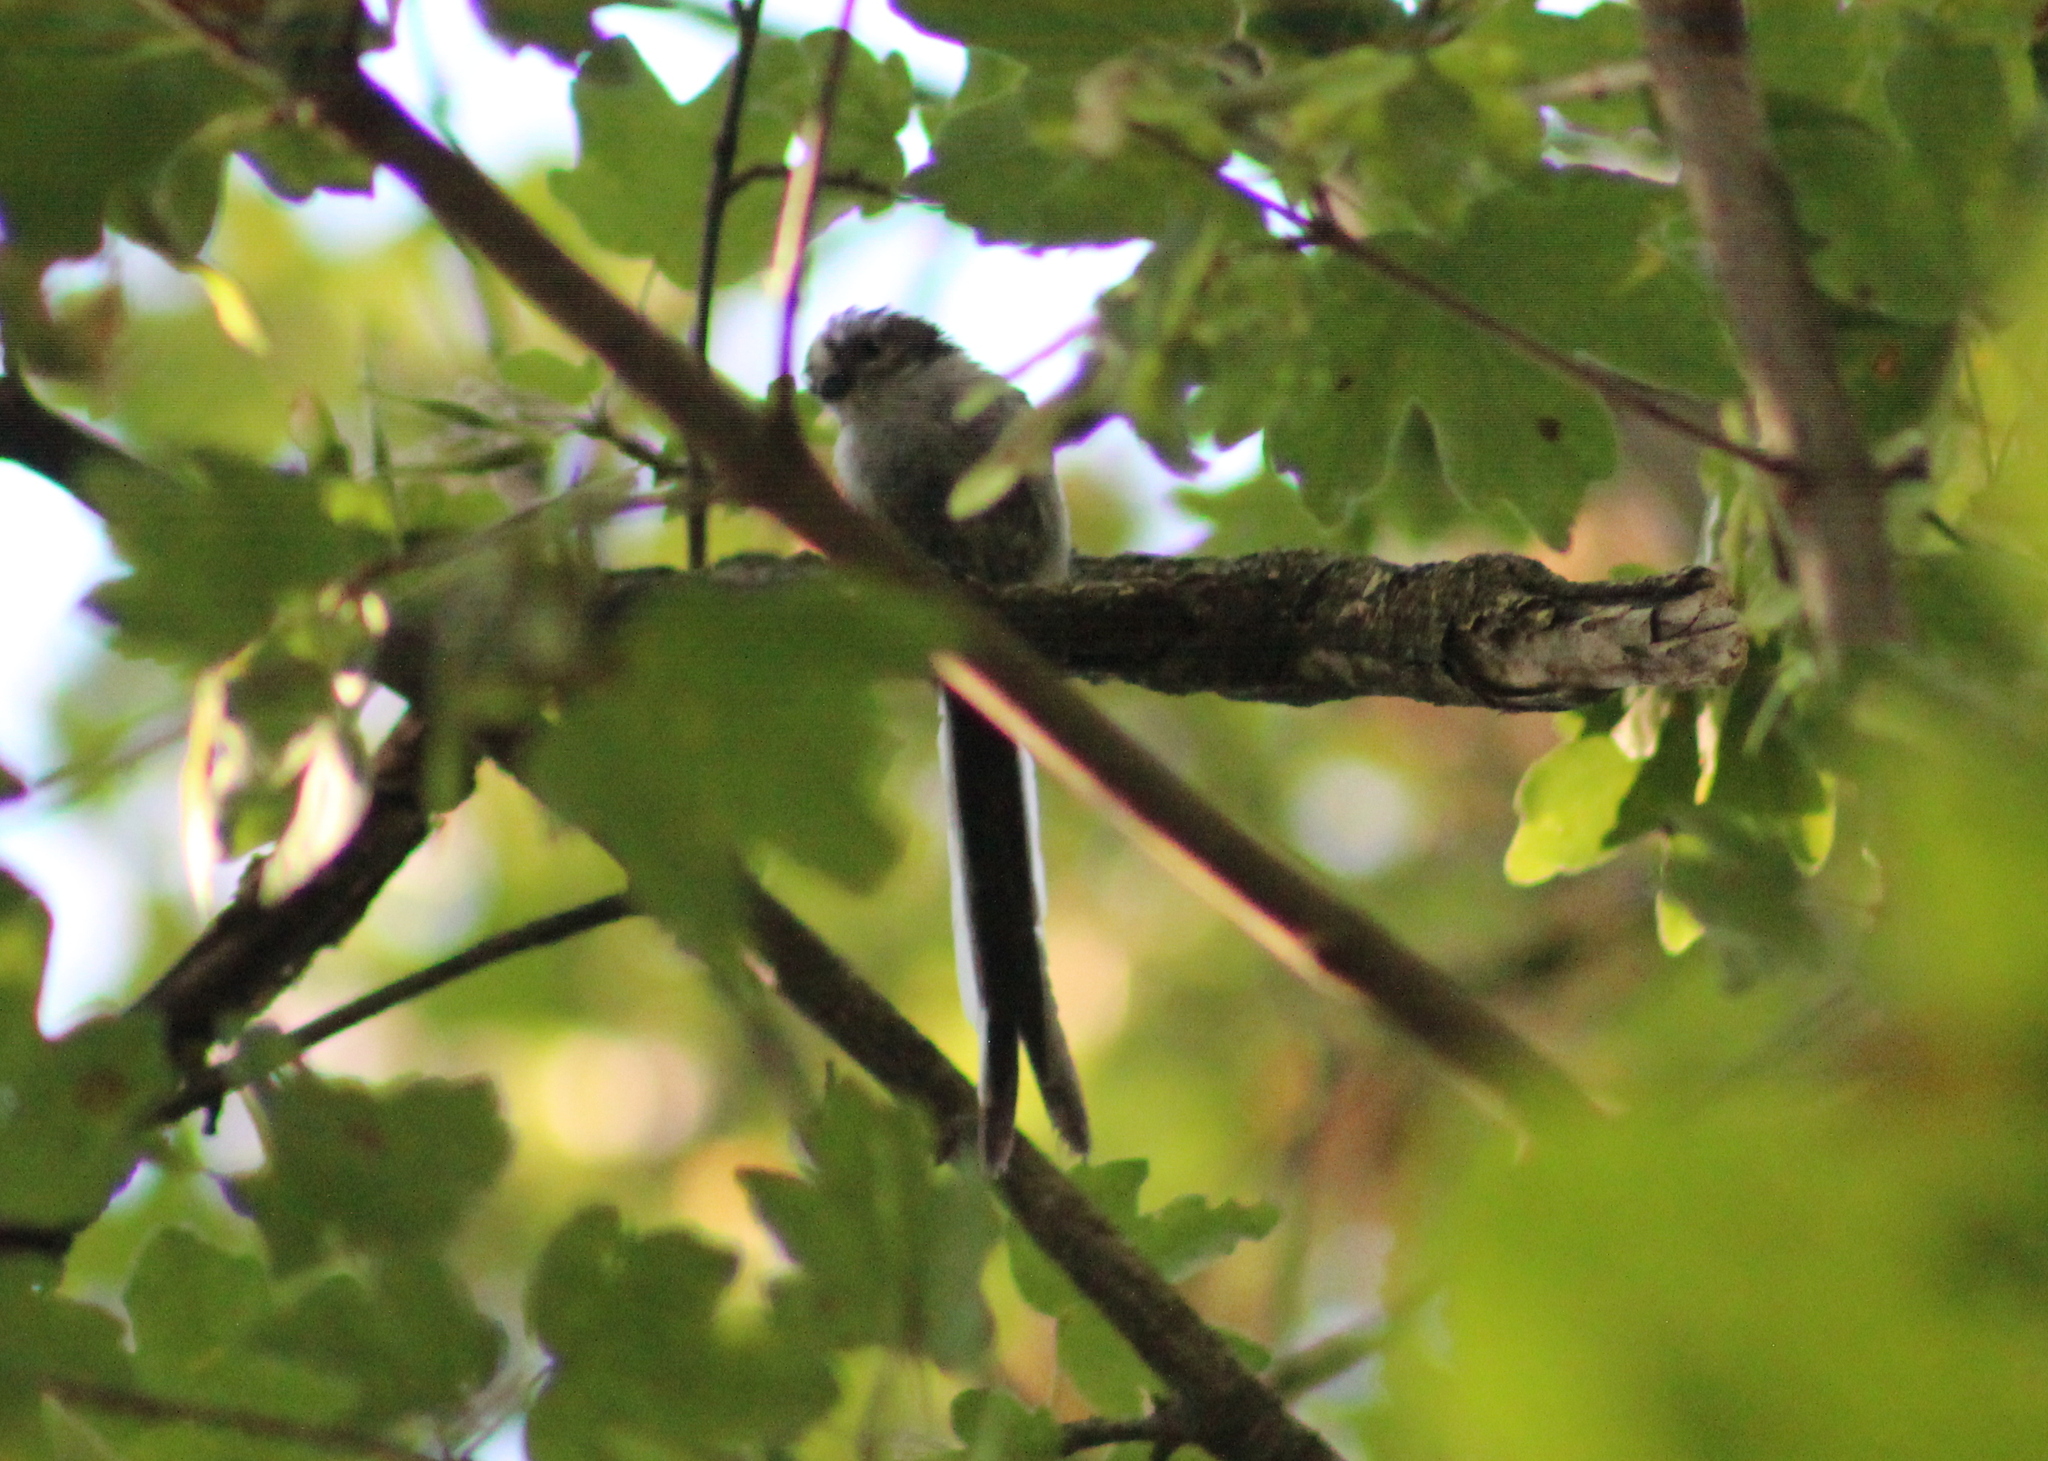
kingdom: Animalia
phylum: Chordata
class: Aves
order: Passeriformes
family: Aegithalidae
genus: Aegithalos
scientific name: Aegithalos caudatus
